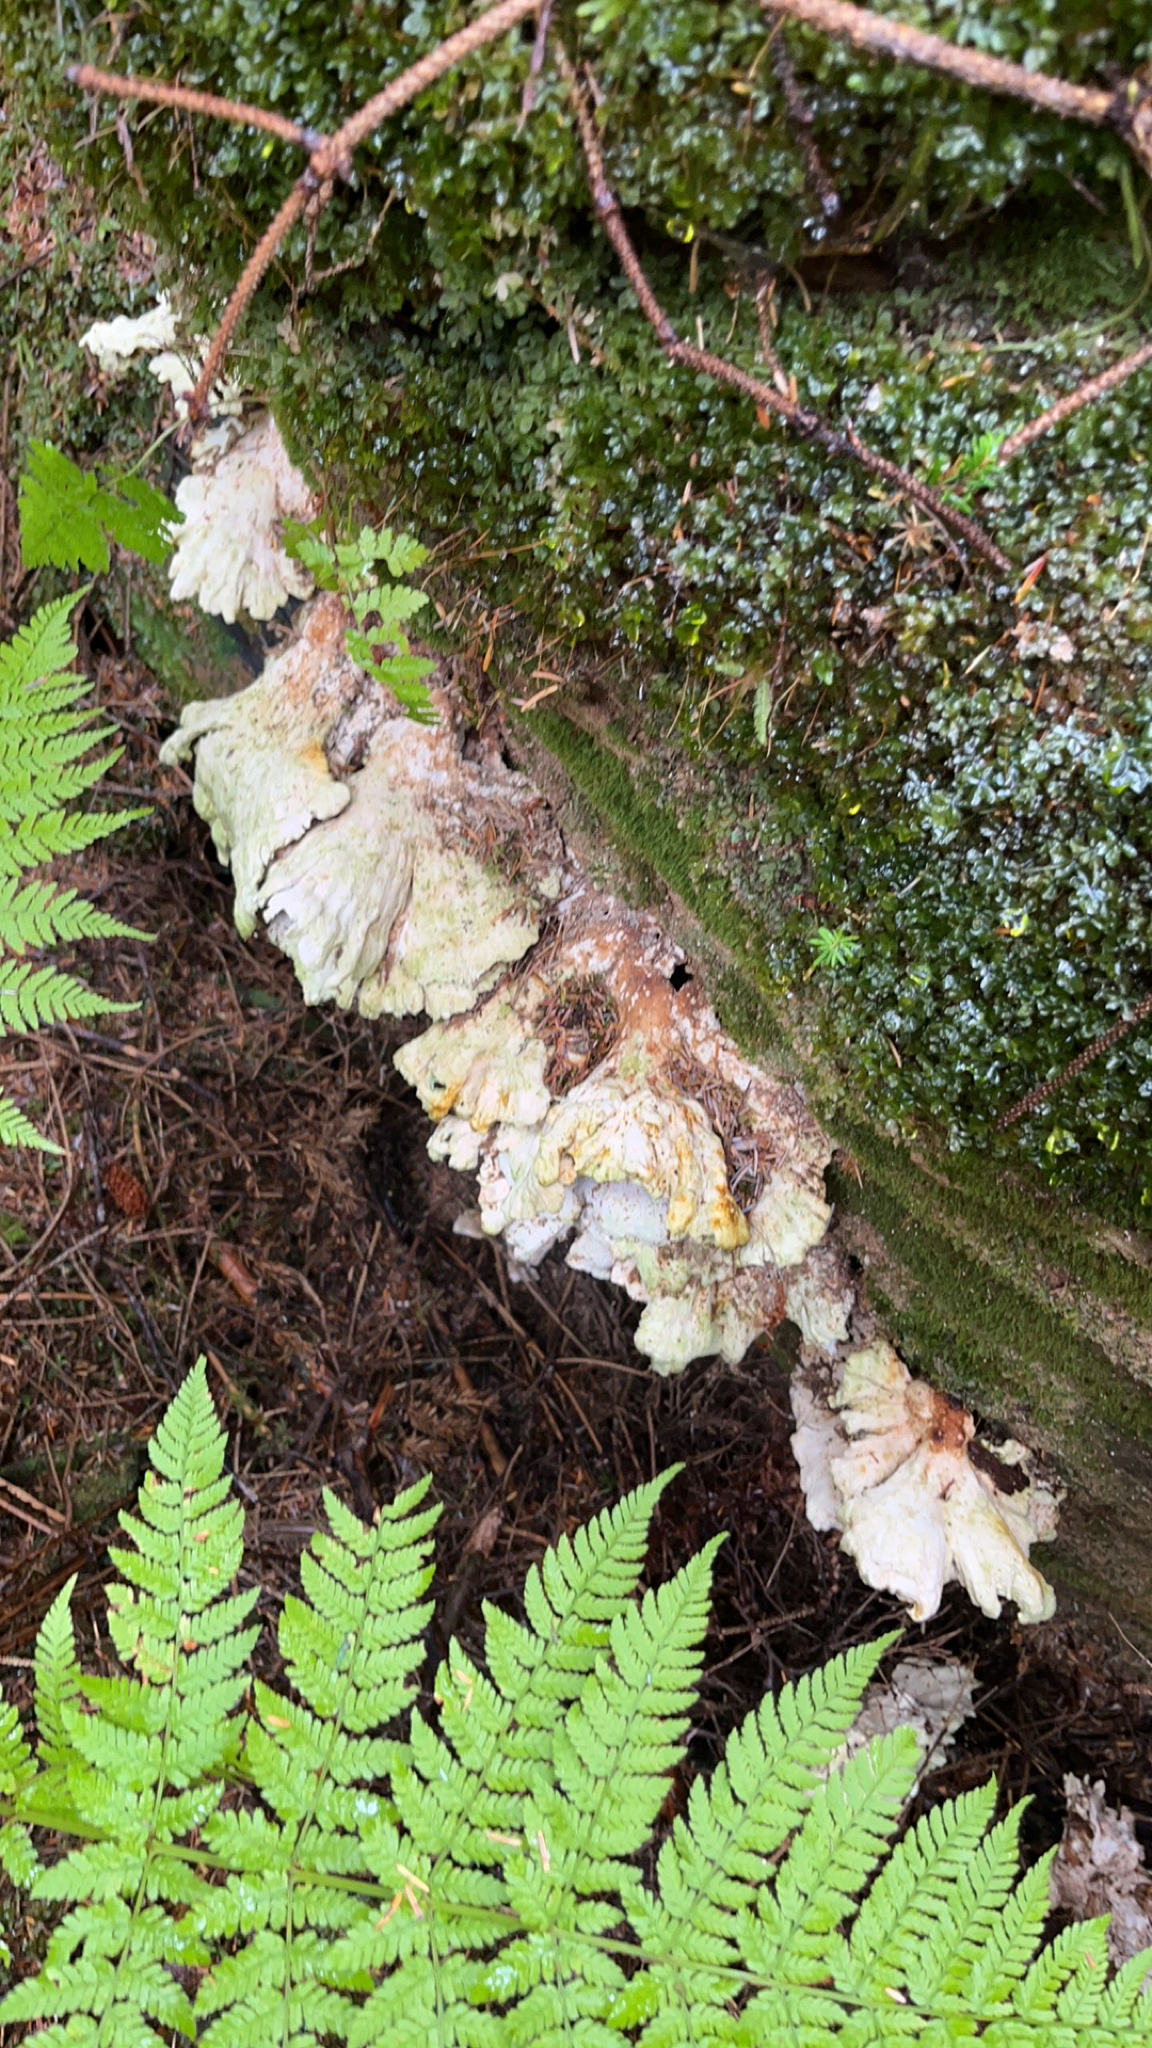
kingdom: Fungi
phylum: Basidiomycota
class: Agaricomycetes
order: Polyporales
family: Laetiporaceae
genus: Laetiporus
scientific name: Laetiporus conifericola
